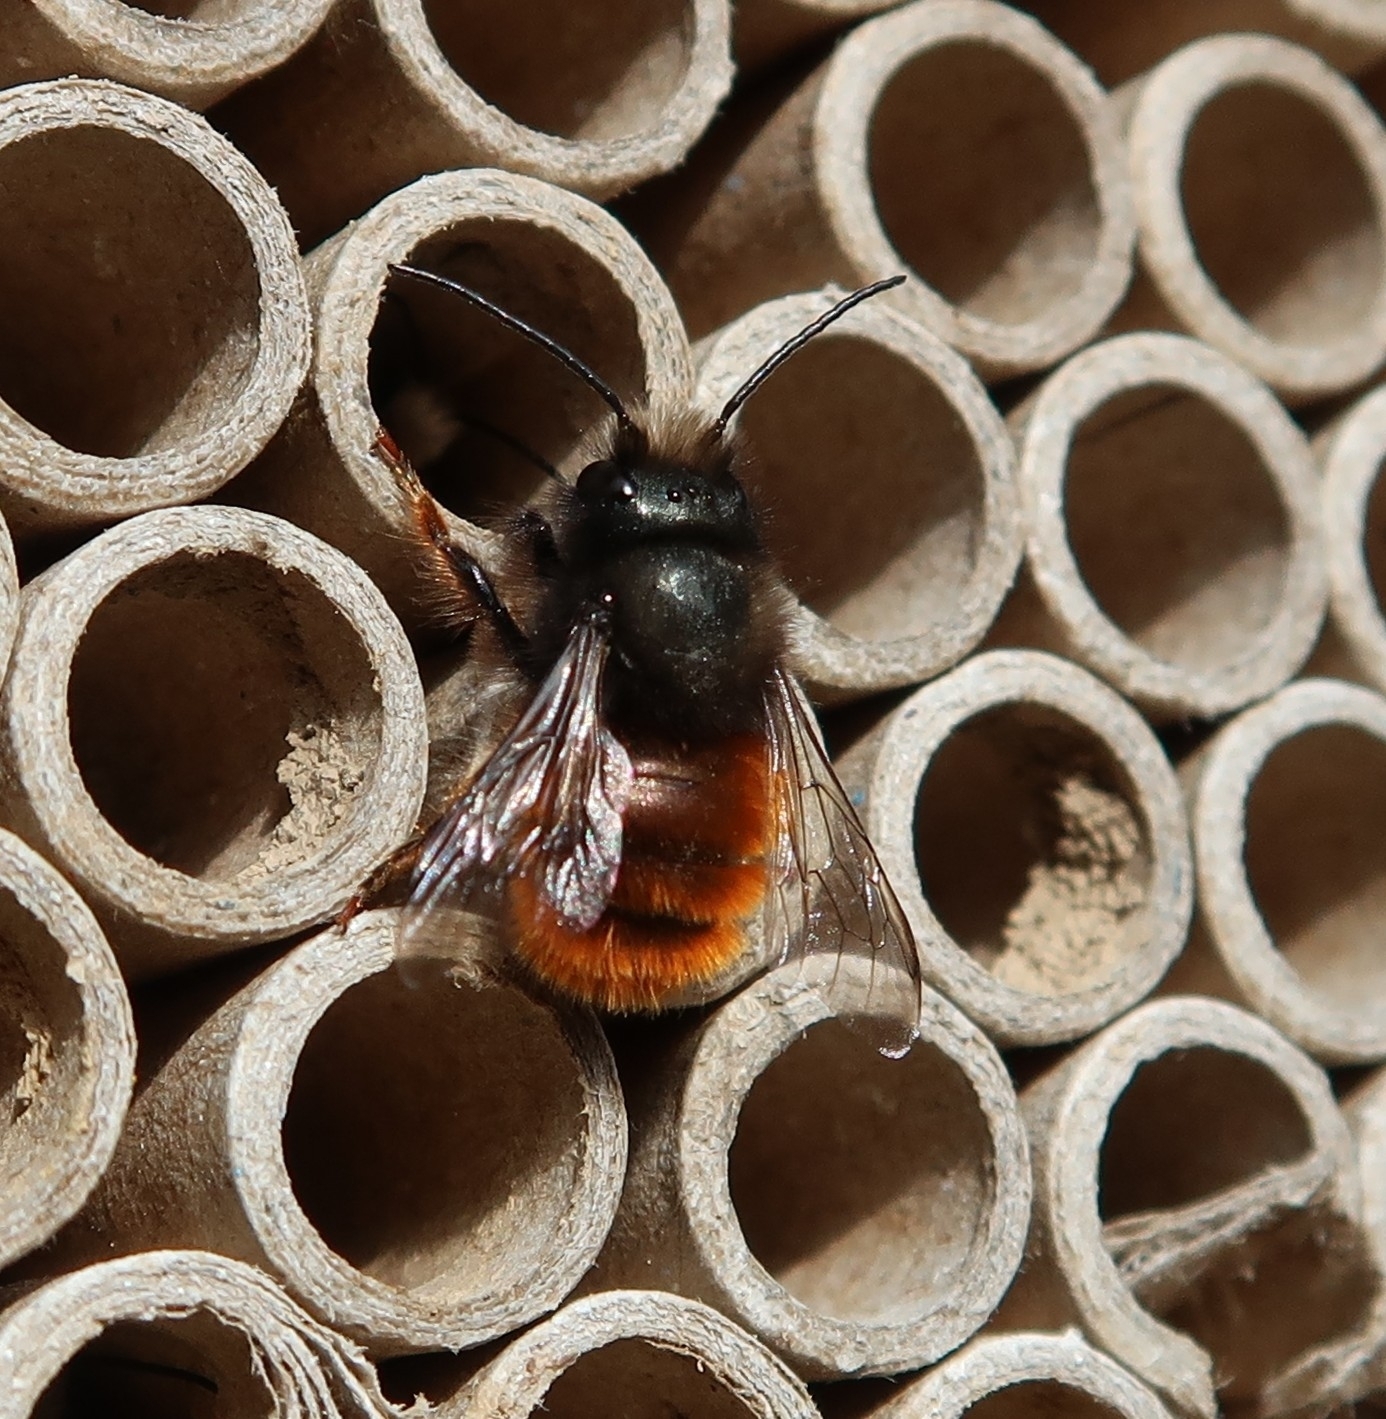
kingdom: Animalia
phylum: Arthropoda
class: Insecta
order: Hymenoptera
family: Megachilidae
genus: Osmia
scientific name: Osmia cornuta
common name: Mason bee
